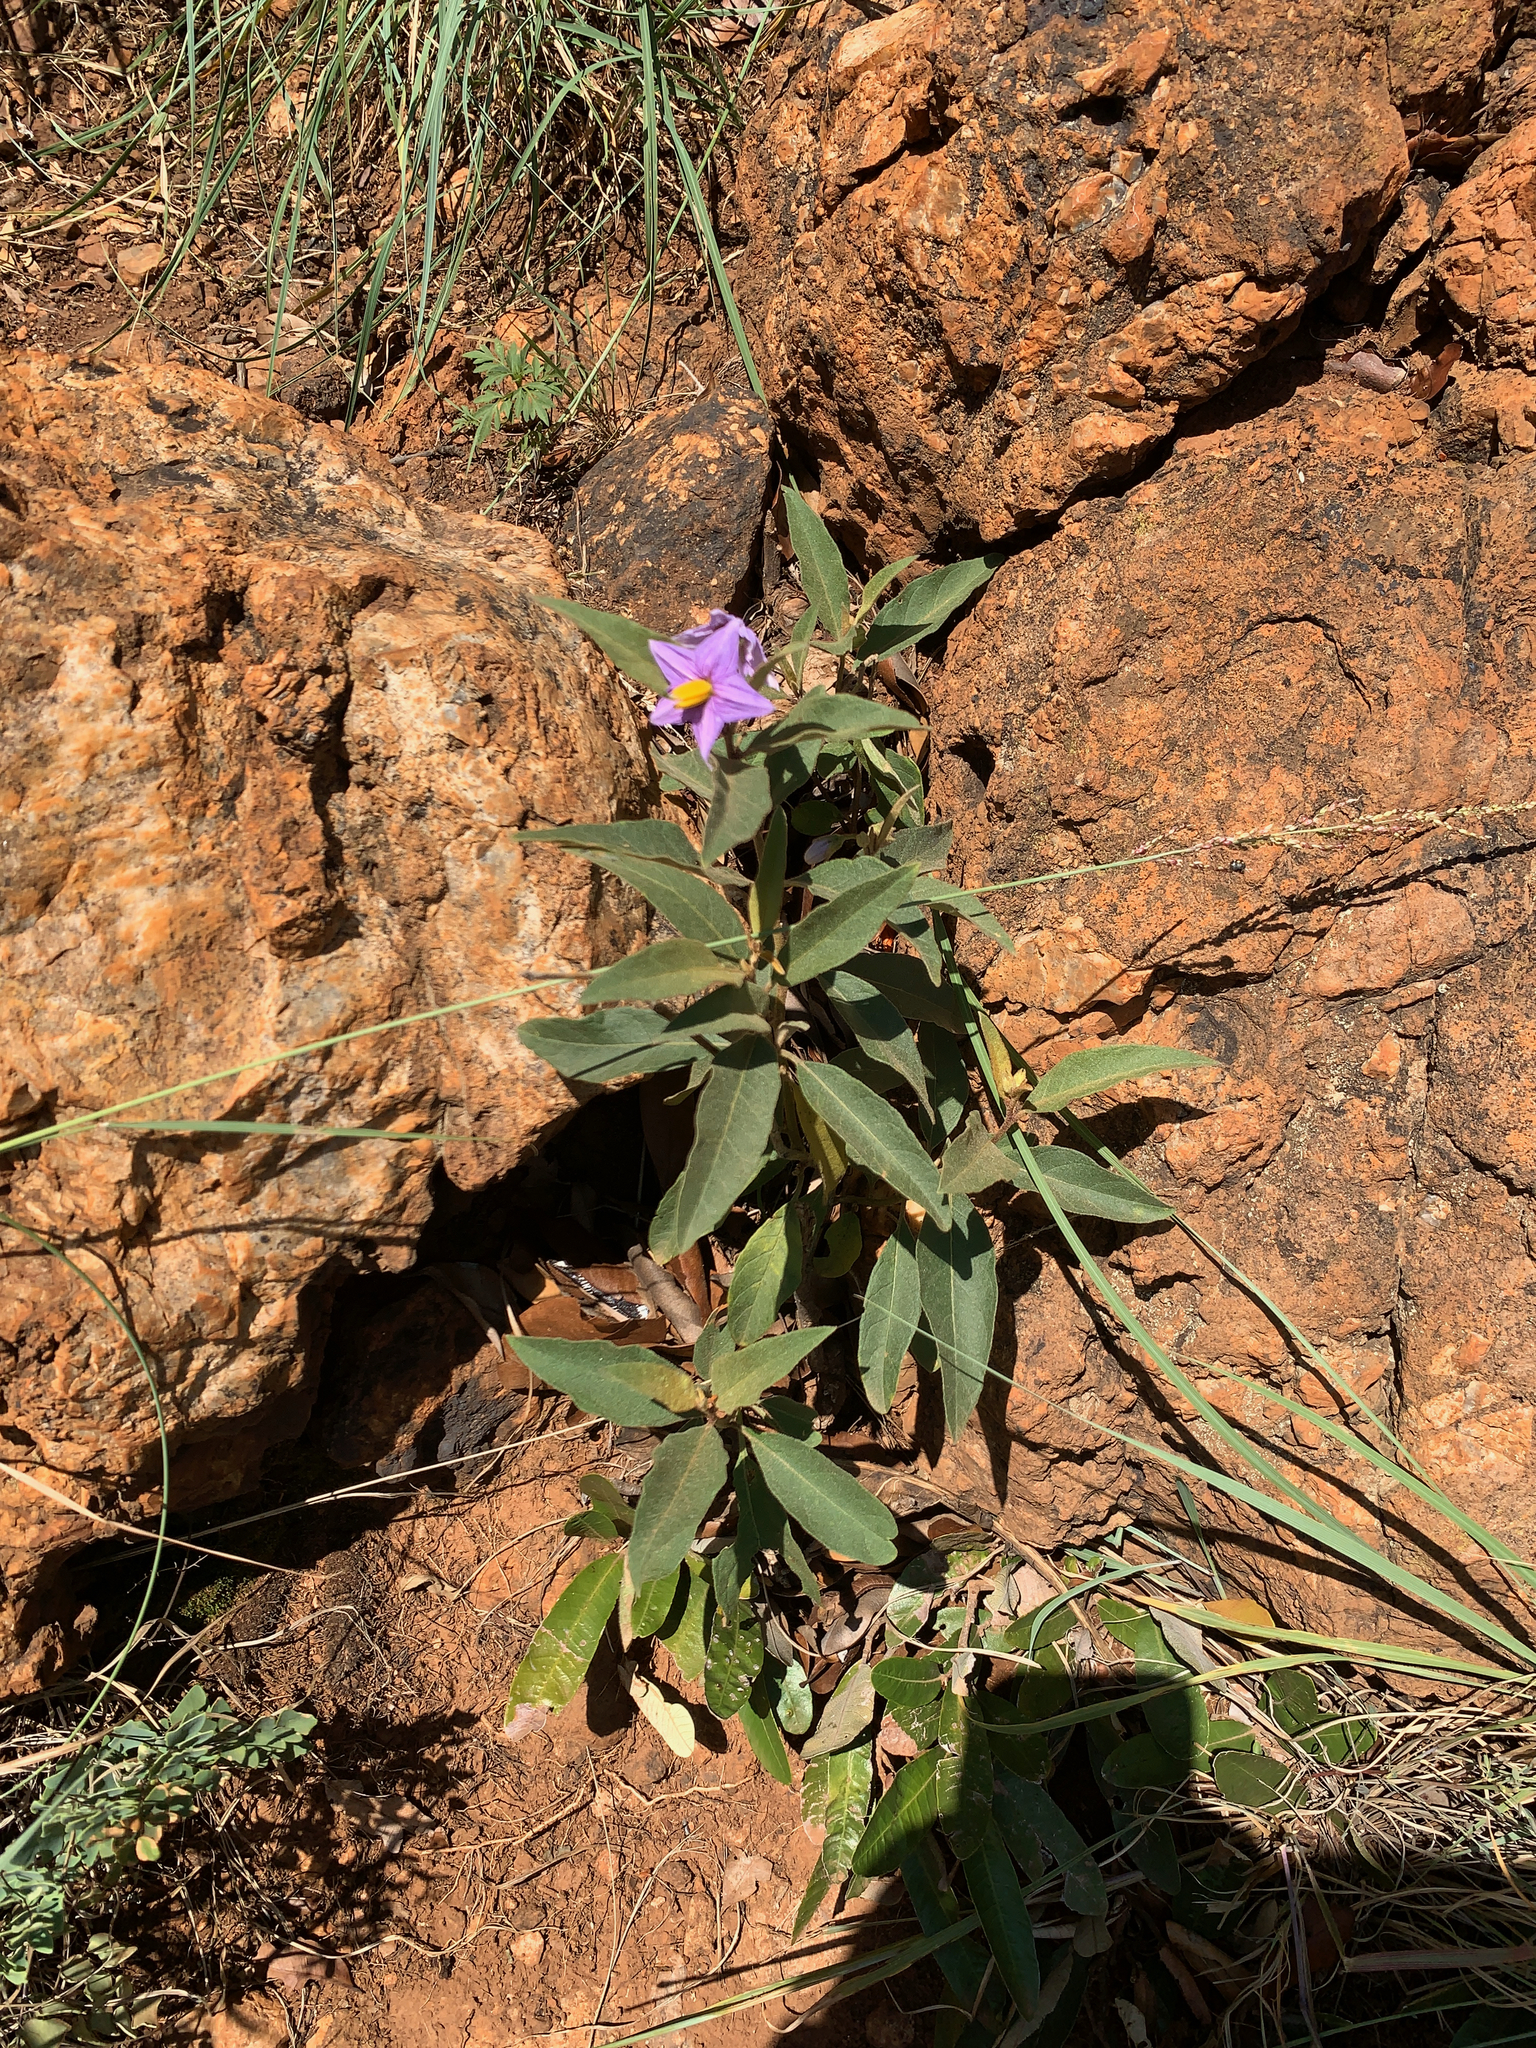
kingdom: Plantae
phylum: Tracheophyta
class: Magnoliopsida
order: Solanales
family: Solanaceae
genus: Solanum
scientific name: Solanum campylacanthum
